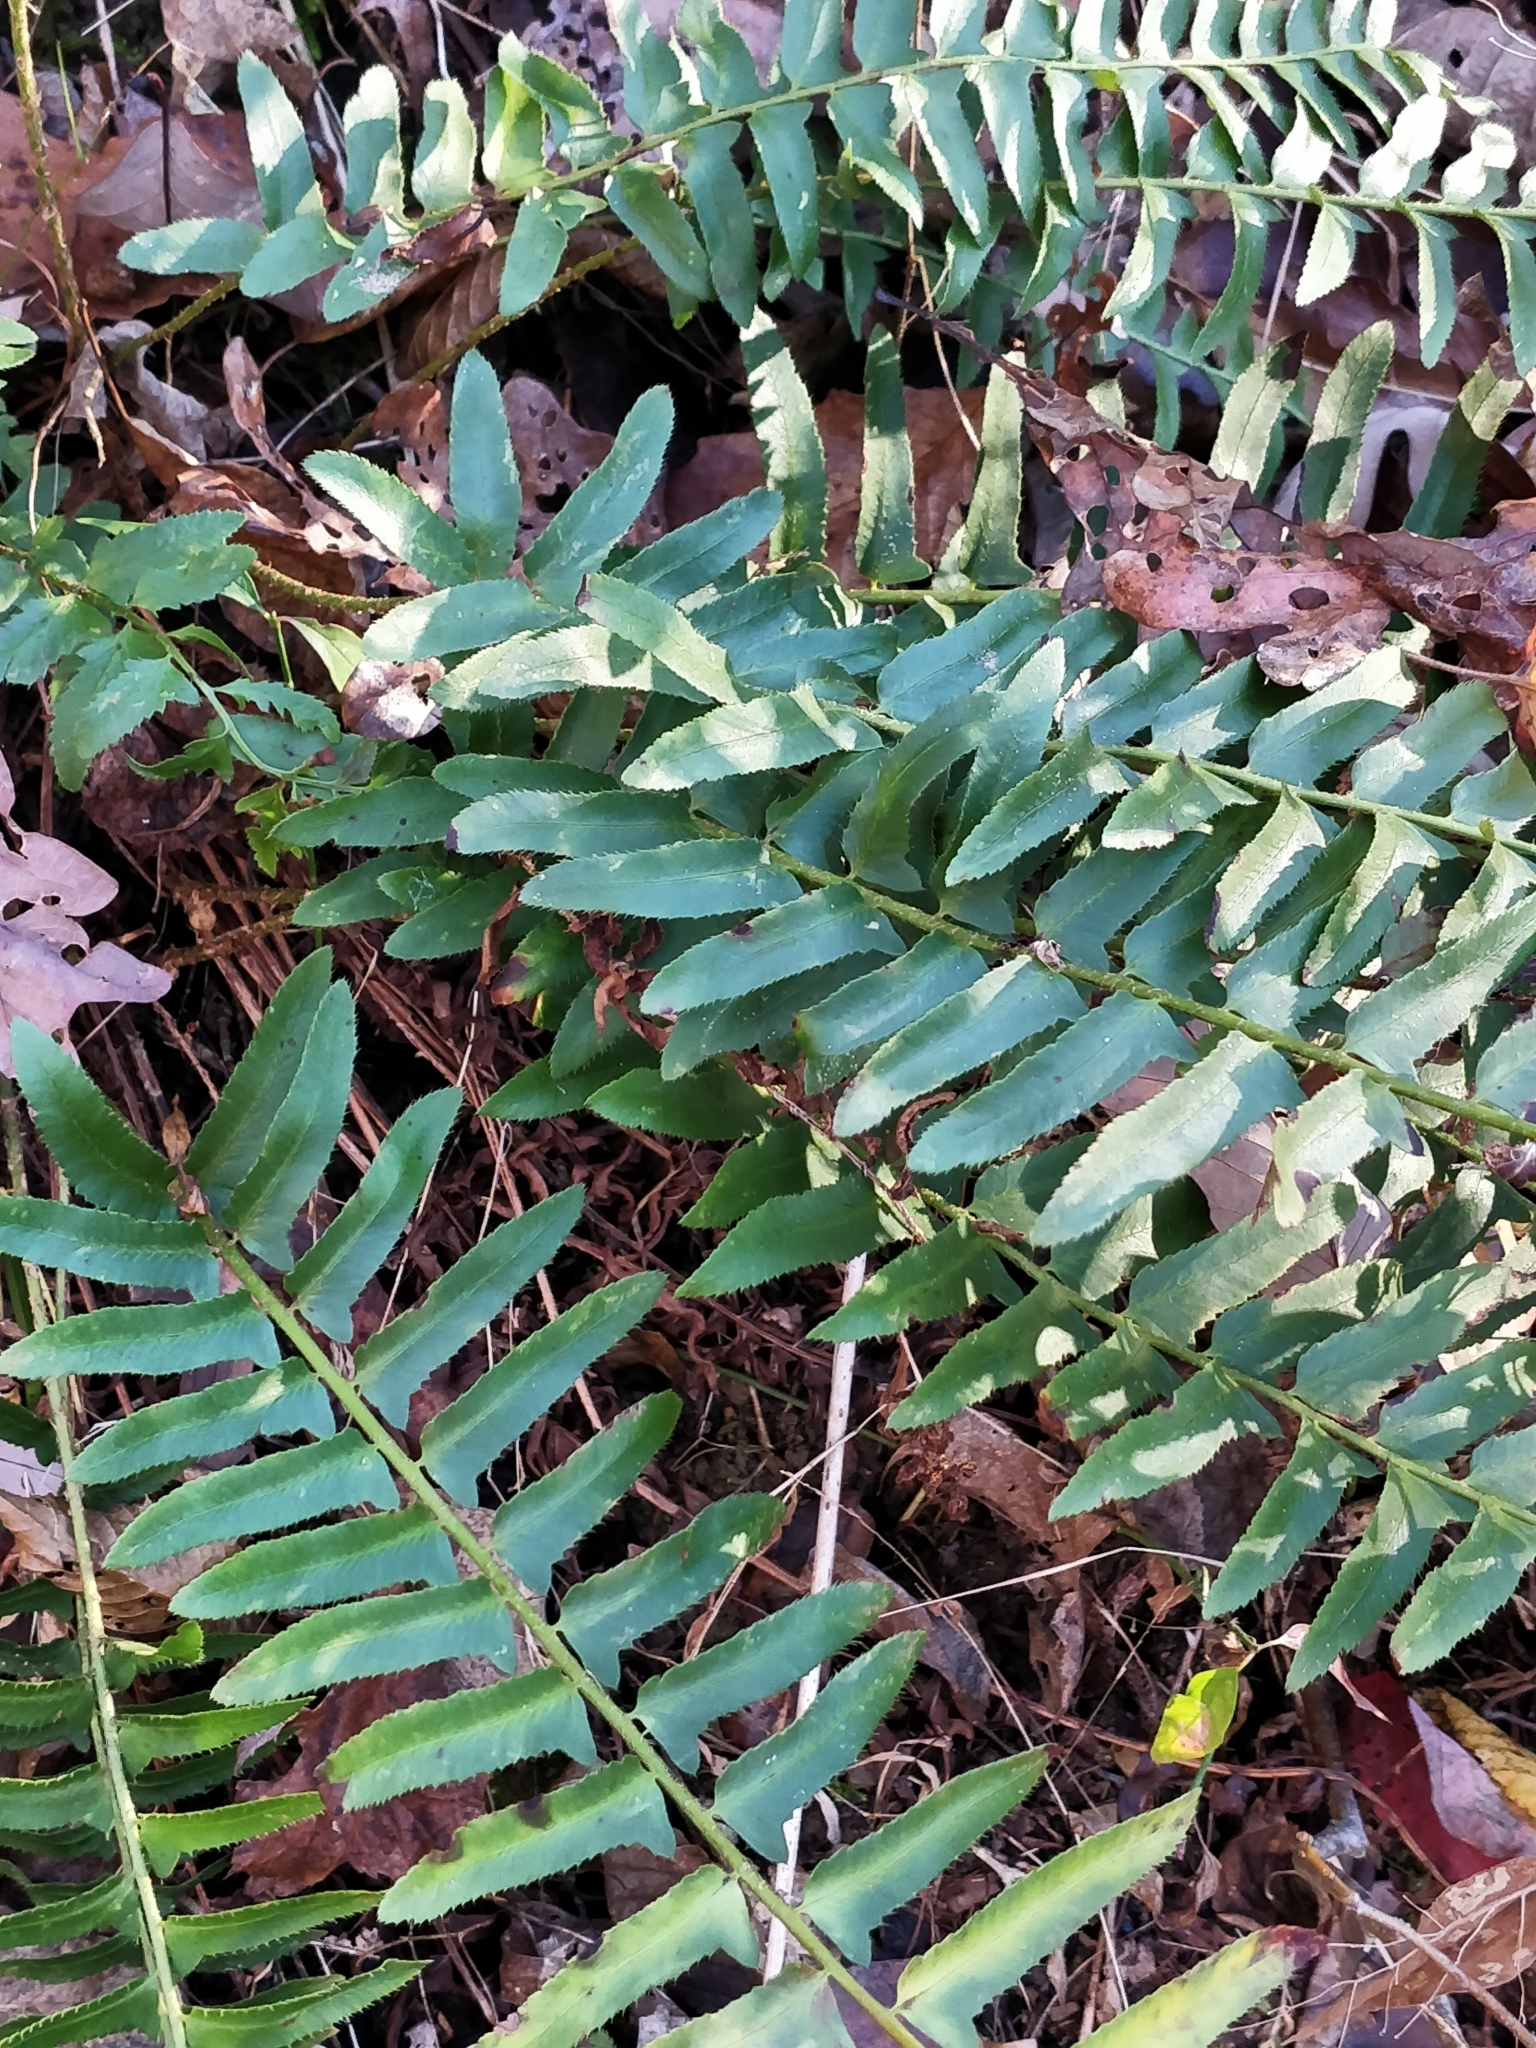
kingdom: Plantae
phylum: Tracheophyta
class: Polypodiopsida
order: Polypodiales
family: Dryopteridaceae
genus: Polystichum
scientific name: Polystichum acrostichoides
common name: Christmas fern
